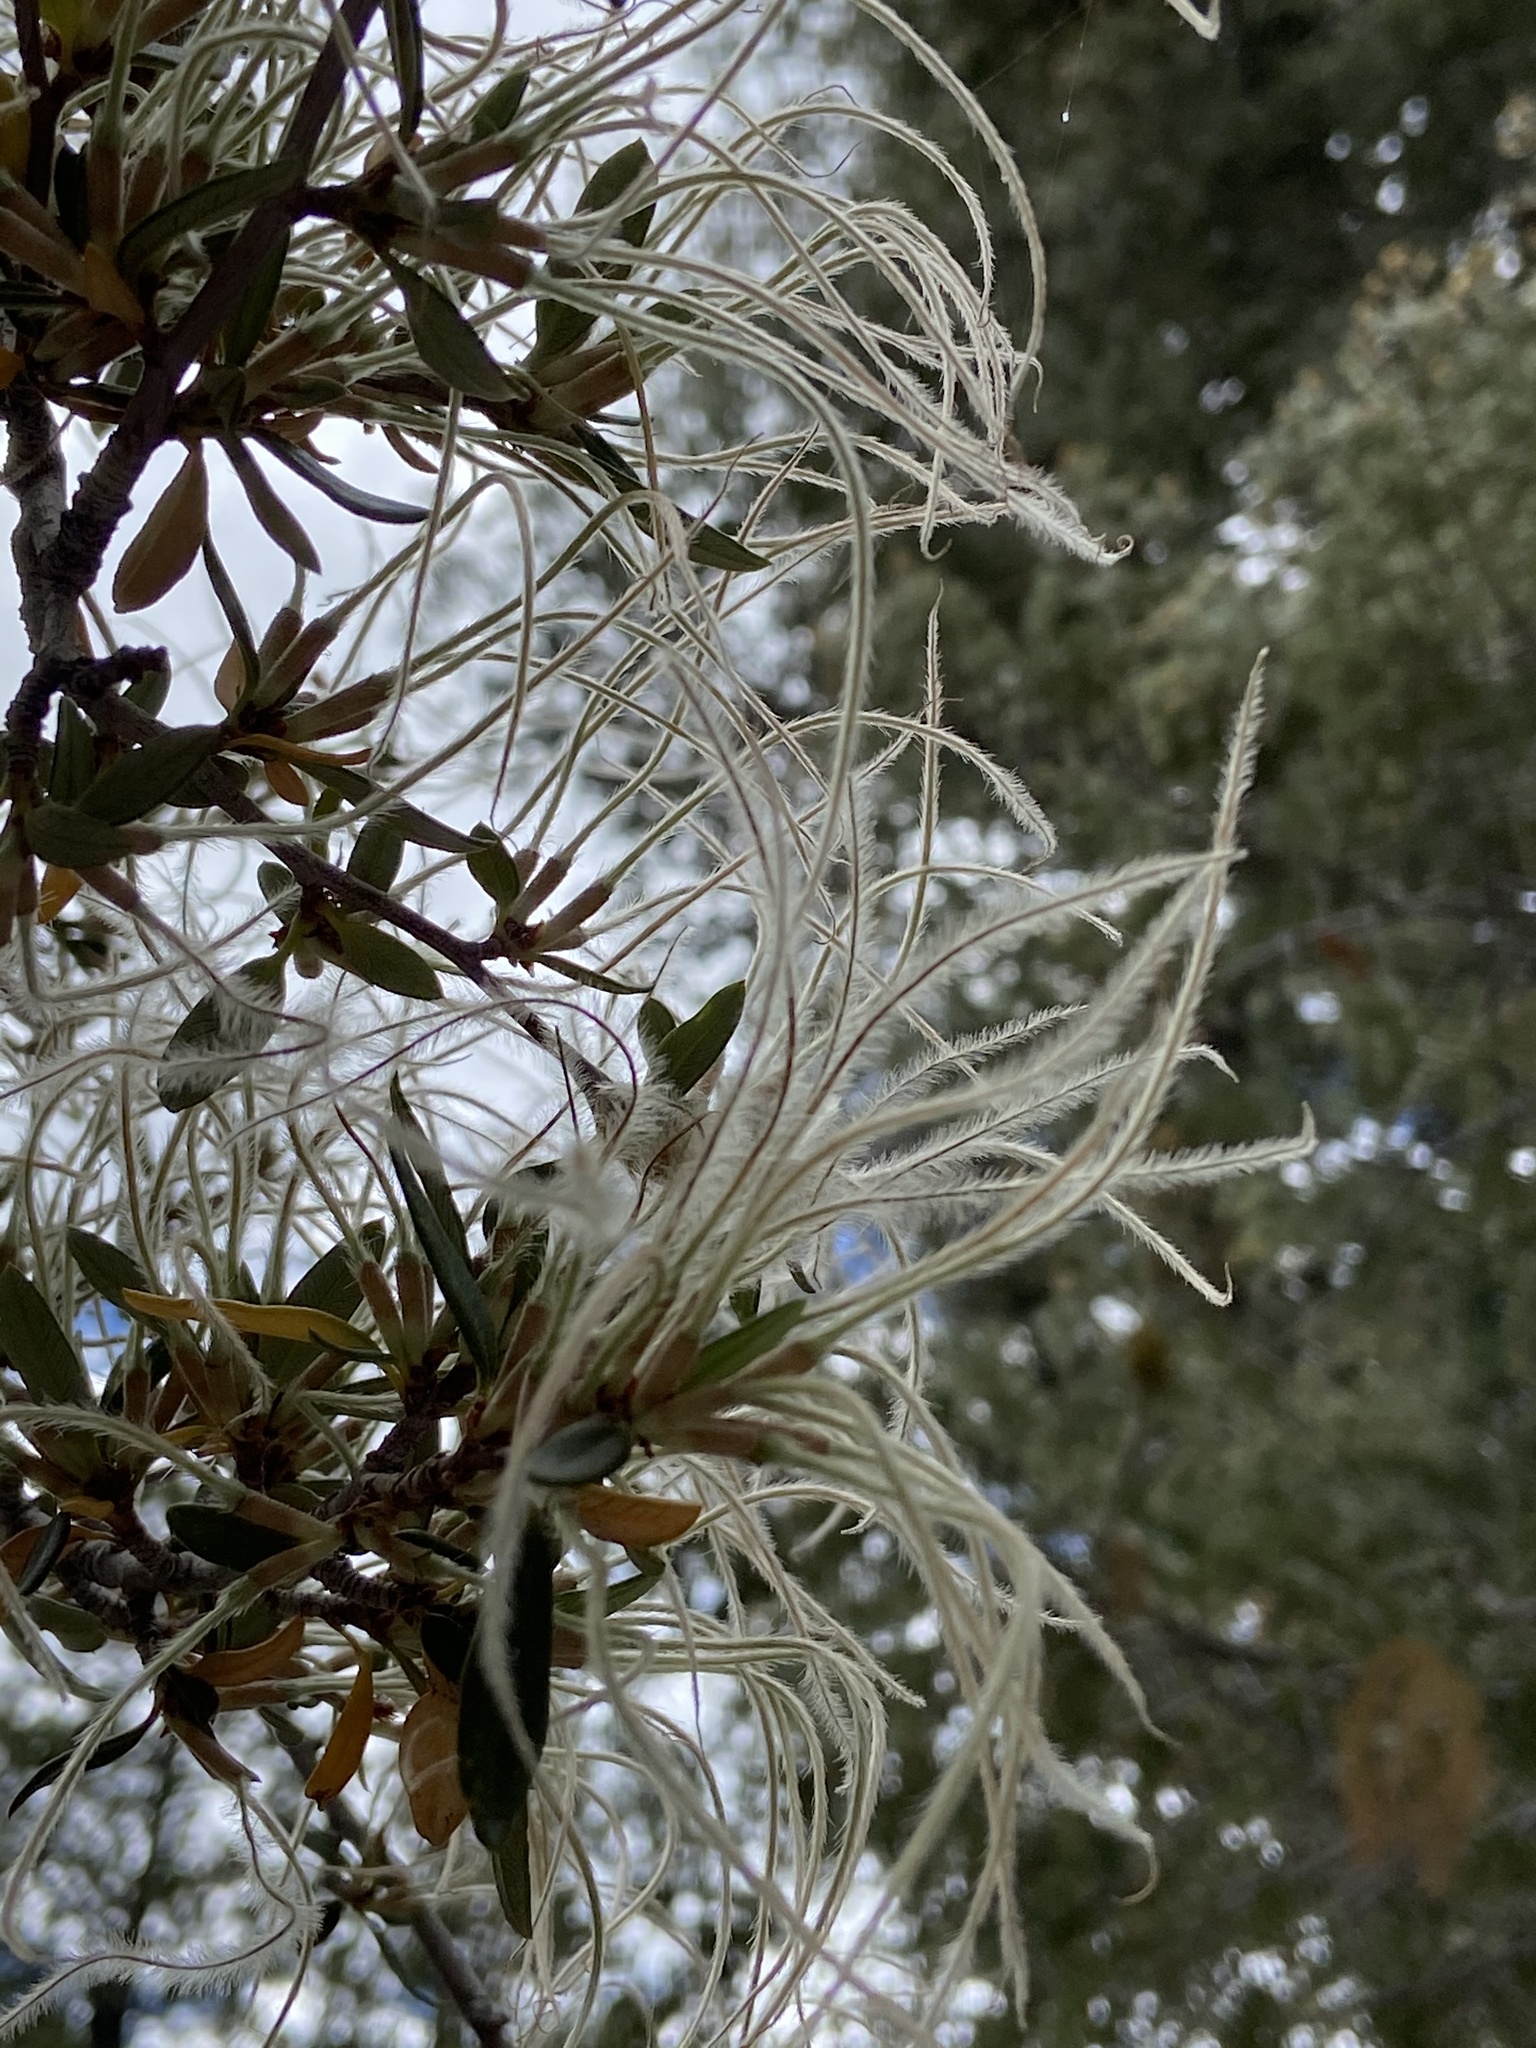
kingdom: Plantae
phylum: Tracheophyta
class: Magnoliopsida
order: Rosales
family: Rosaceae
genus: Cercocarpus
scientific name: Cercocarpus ledifolius
